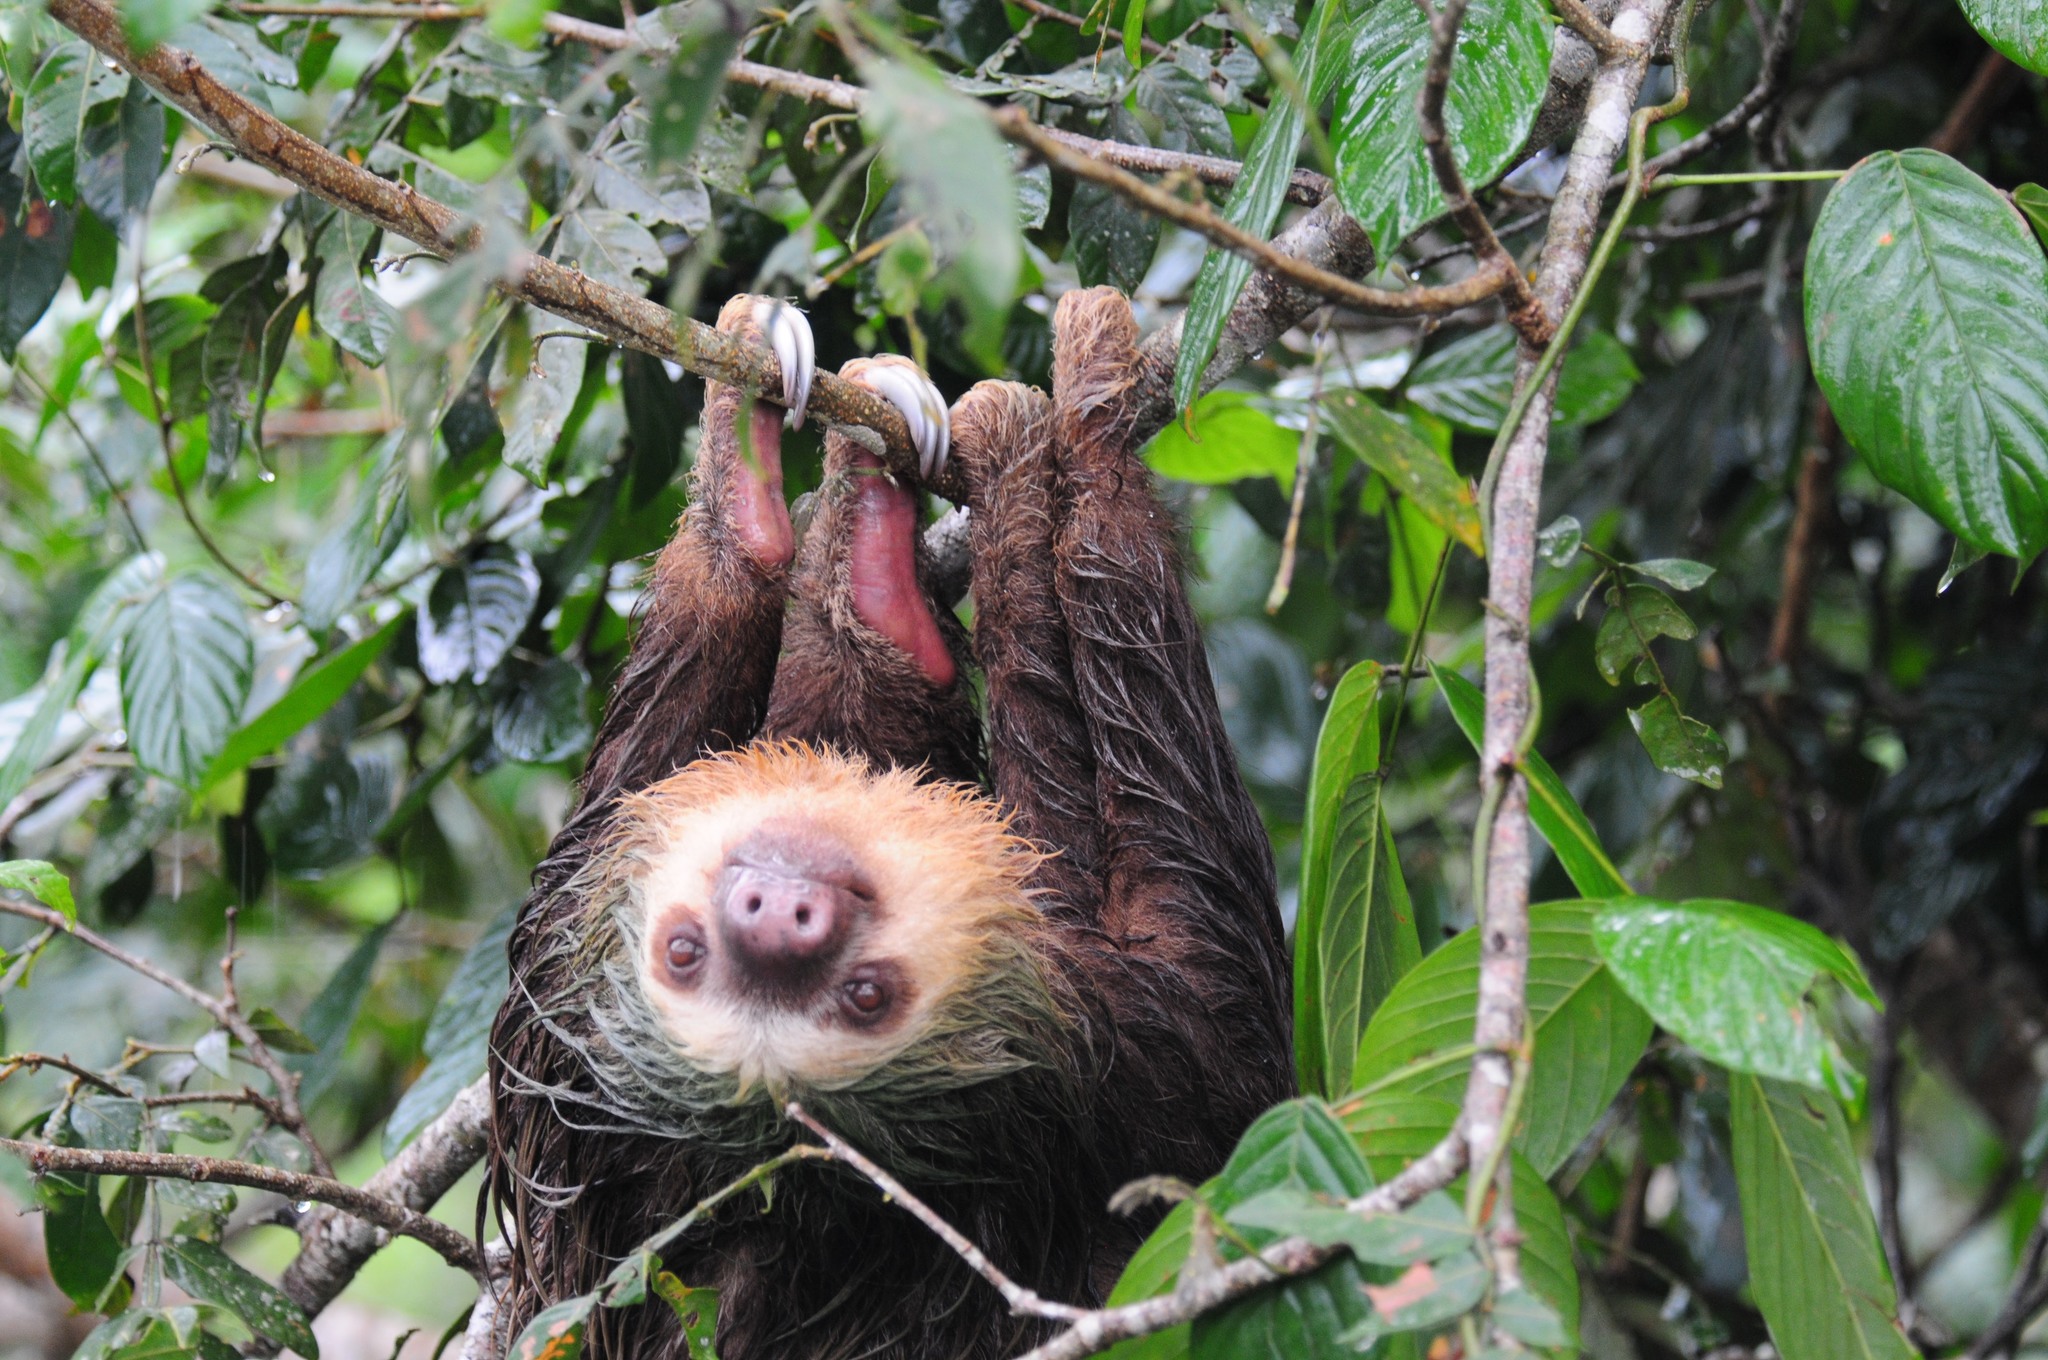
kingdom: Animalia
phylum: Chordata
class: Mammalia
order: Pilosa
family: Megalonychidae
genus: Choloepus
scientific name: Choloepus hoffmanni
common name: Hoffmann's two-toed sloth
